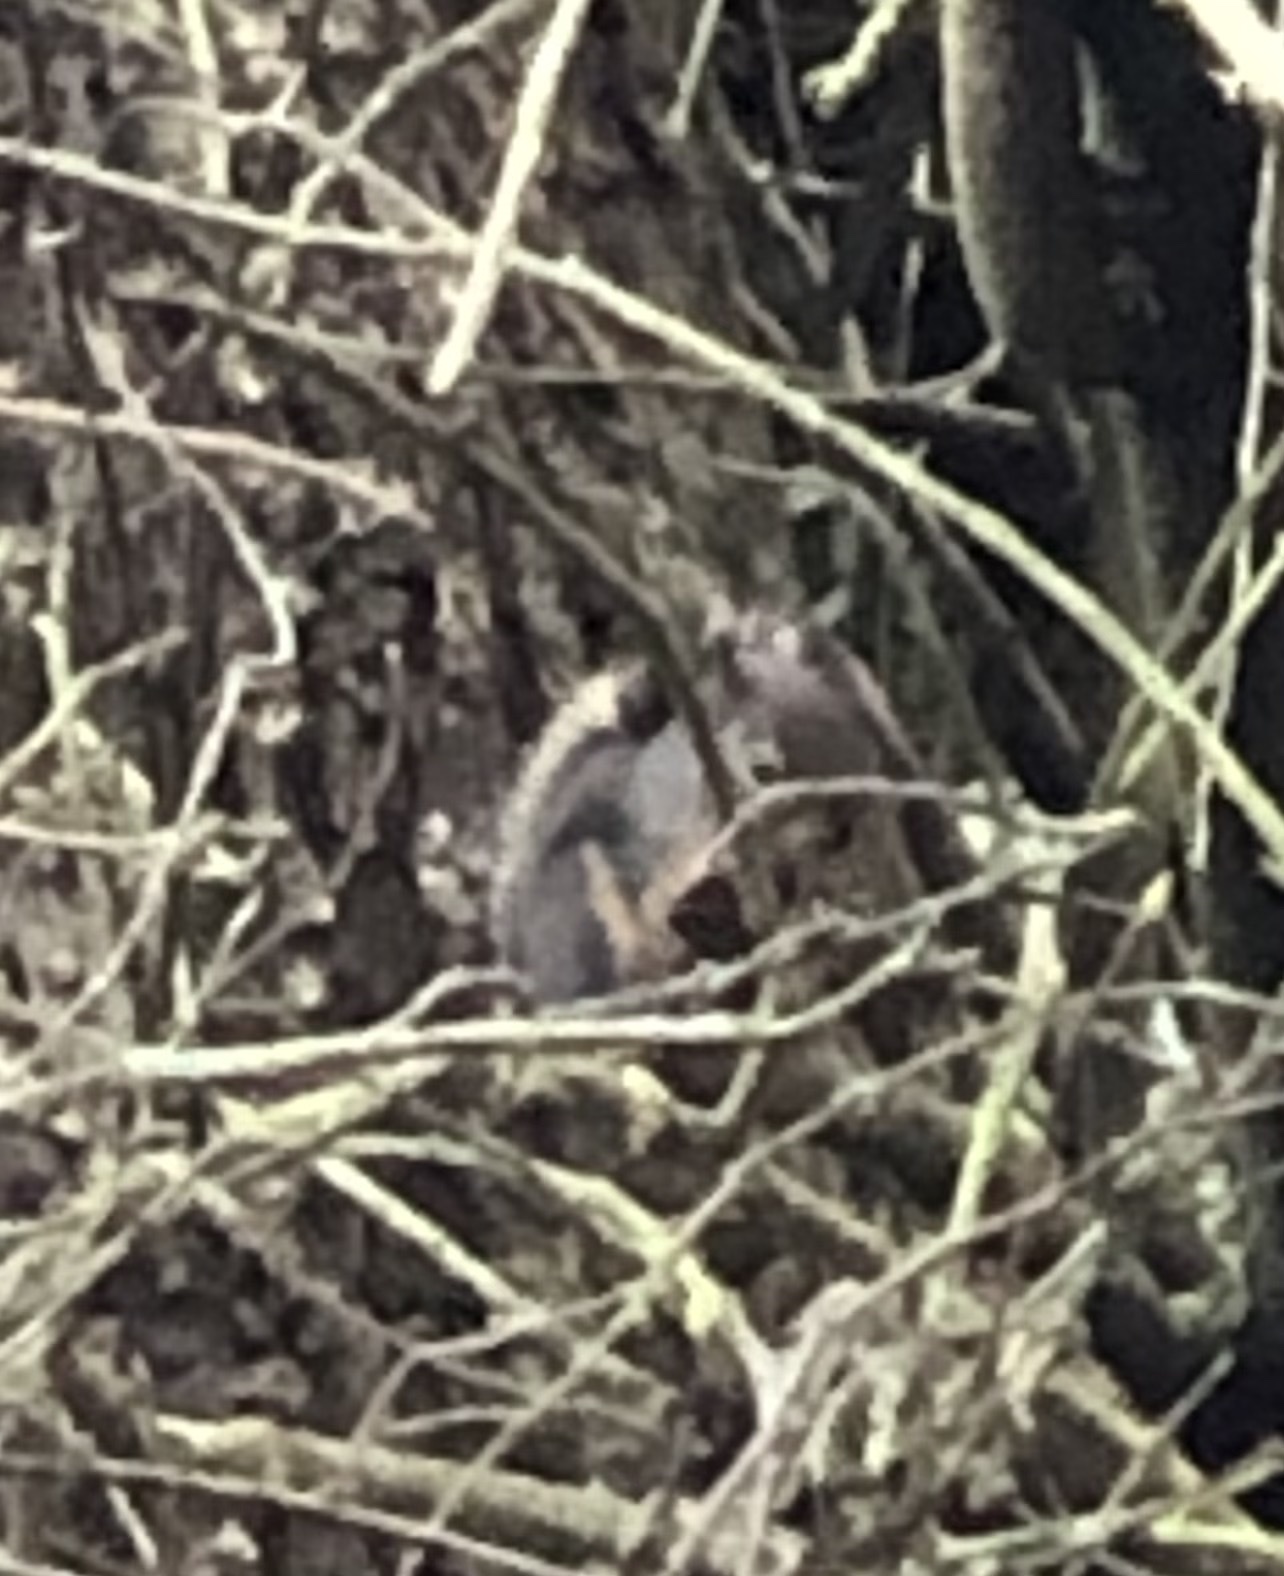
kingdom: Animalia
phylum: Chordata
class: Mammalia
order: Rodentia
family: Sciuridae
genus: Tamiasciurus
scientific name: Tamiasciurus douglasii
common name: Douglas's squirrel
